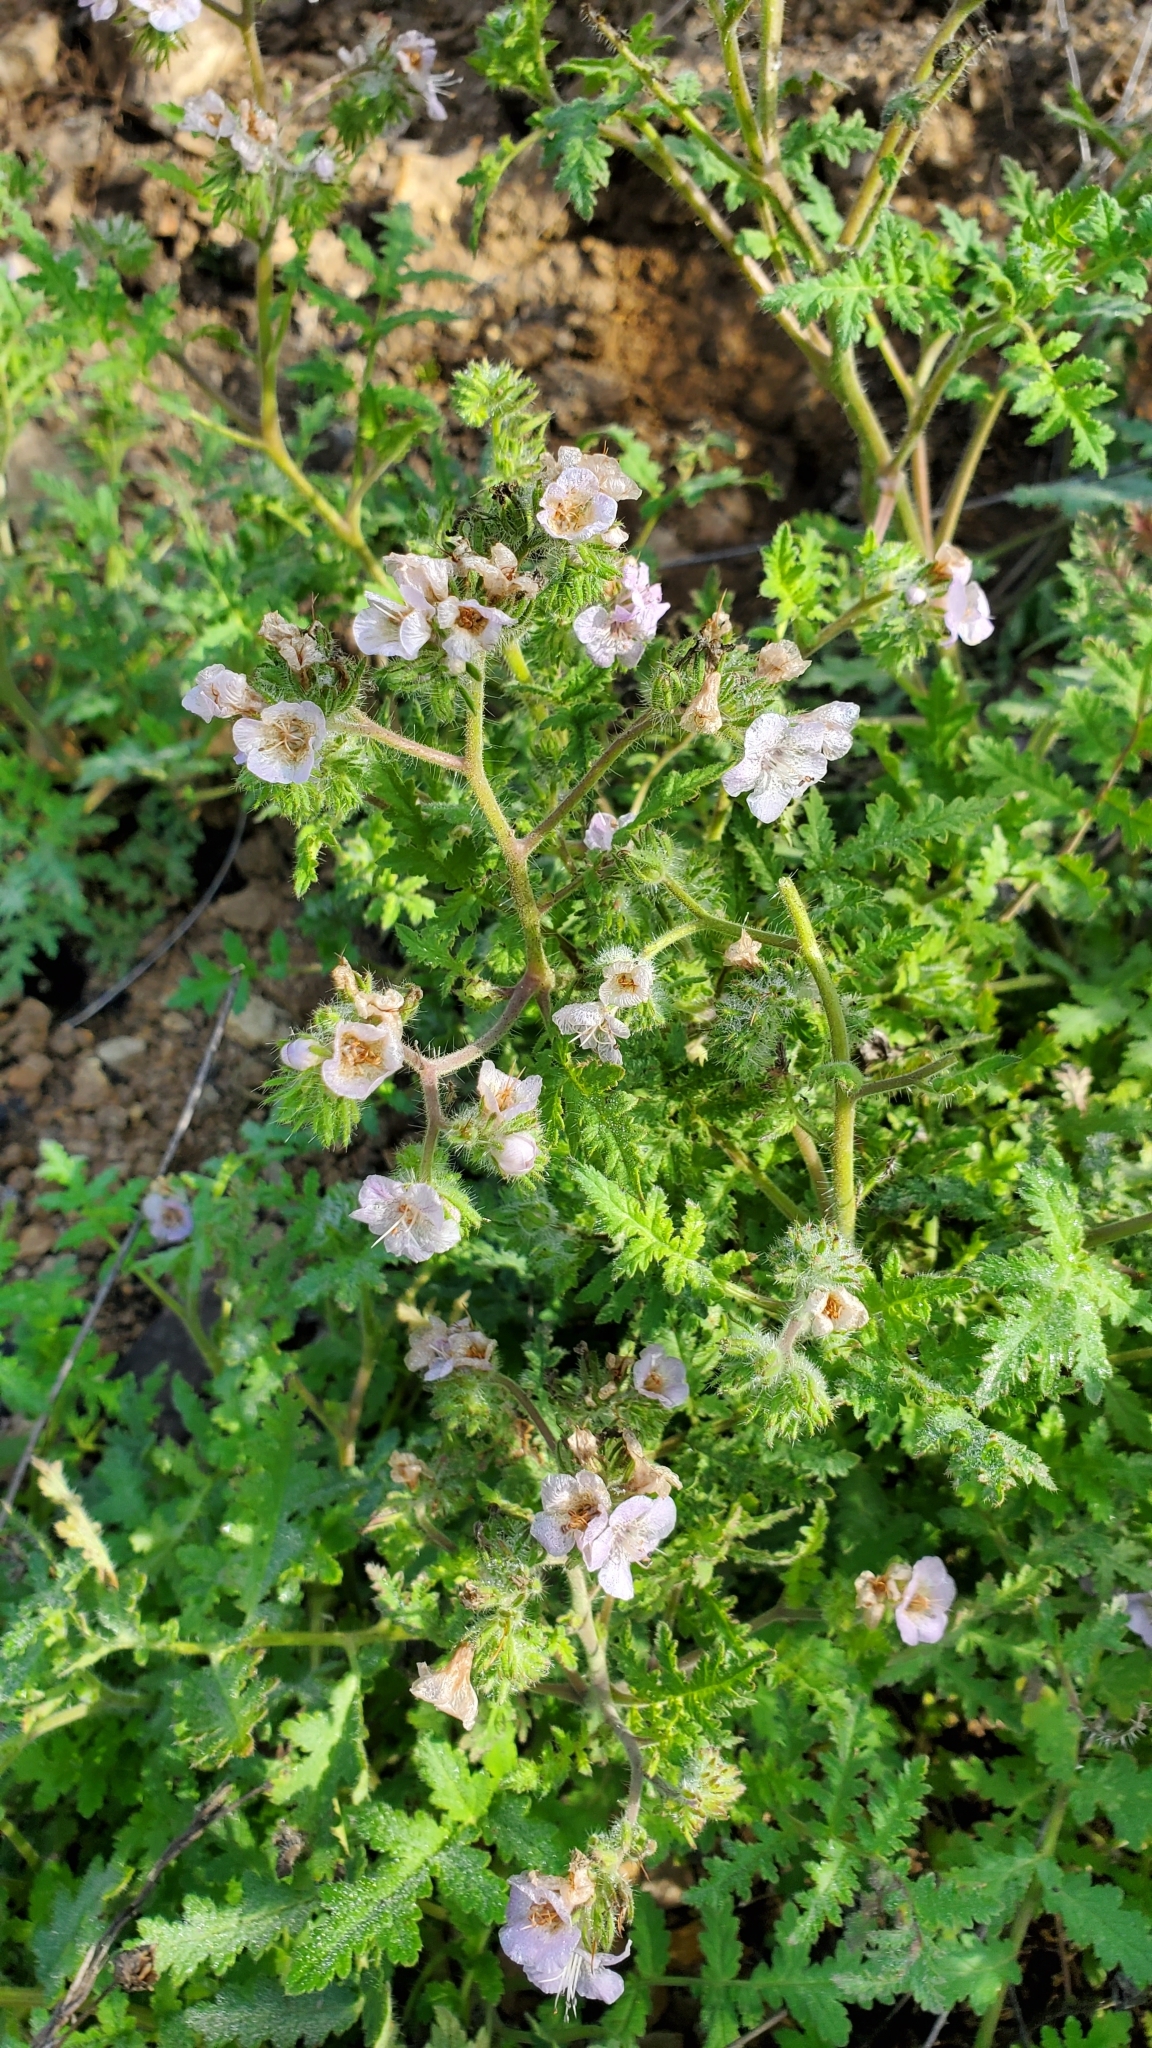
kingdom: Plantae
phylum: Tracheophyta
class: Magnoliopsida
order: Boraginales
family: Hydrophyllaceae
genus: Phacelia
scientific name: Phacelia cicutaria
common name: Caterpillar phacelia
